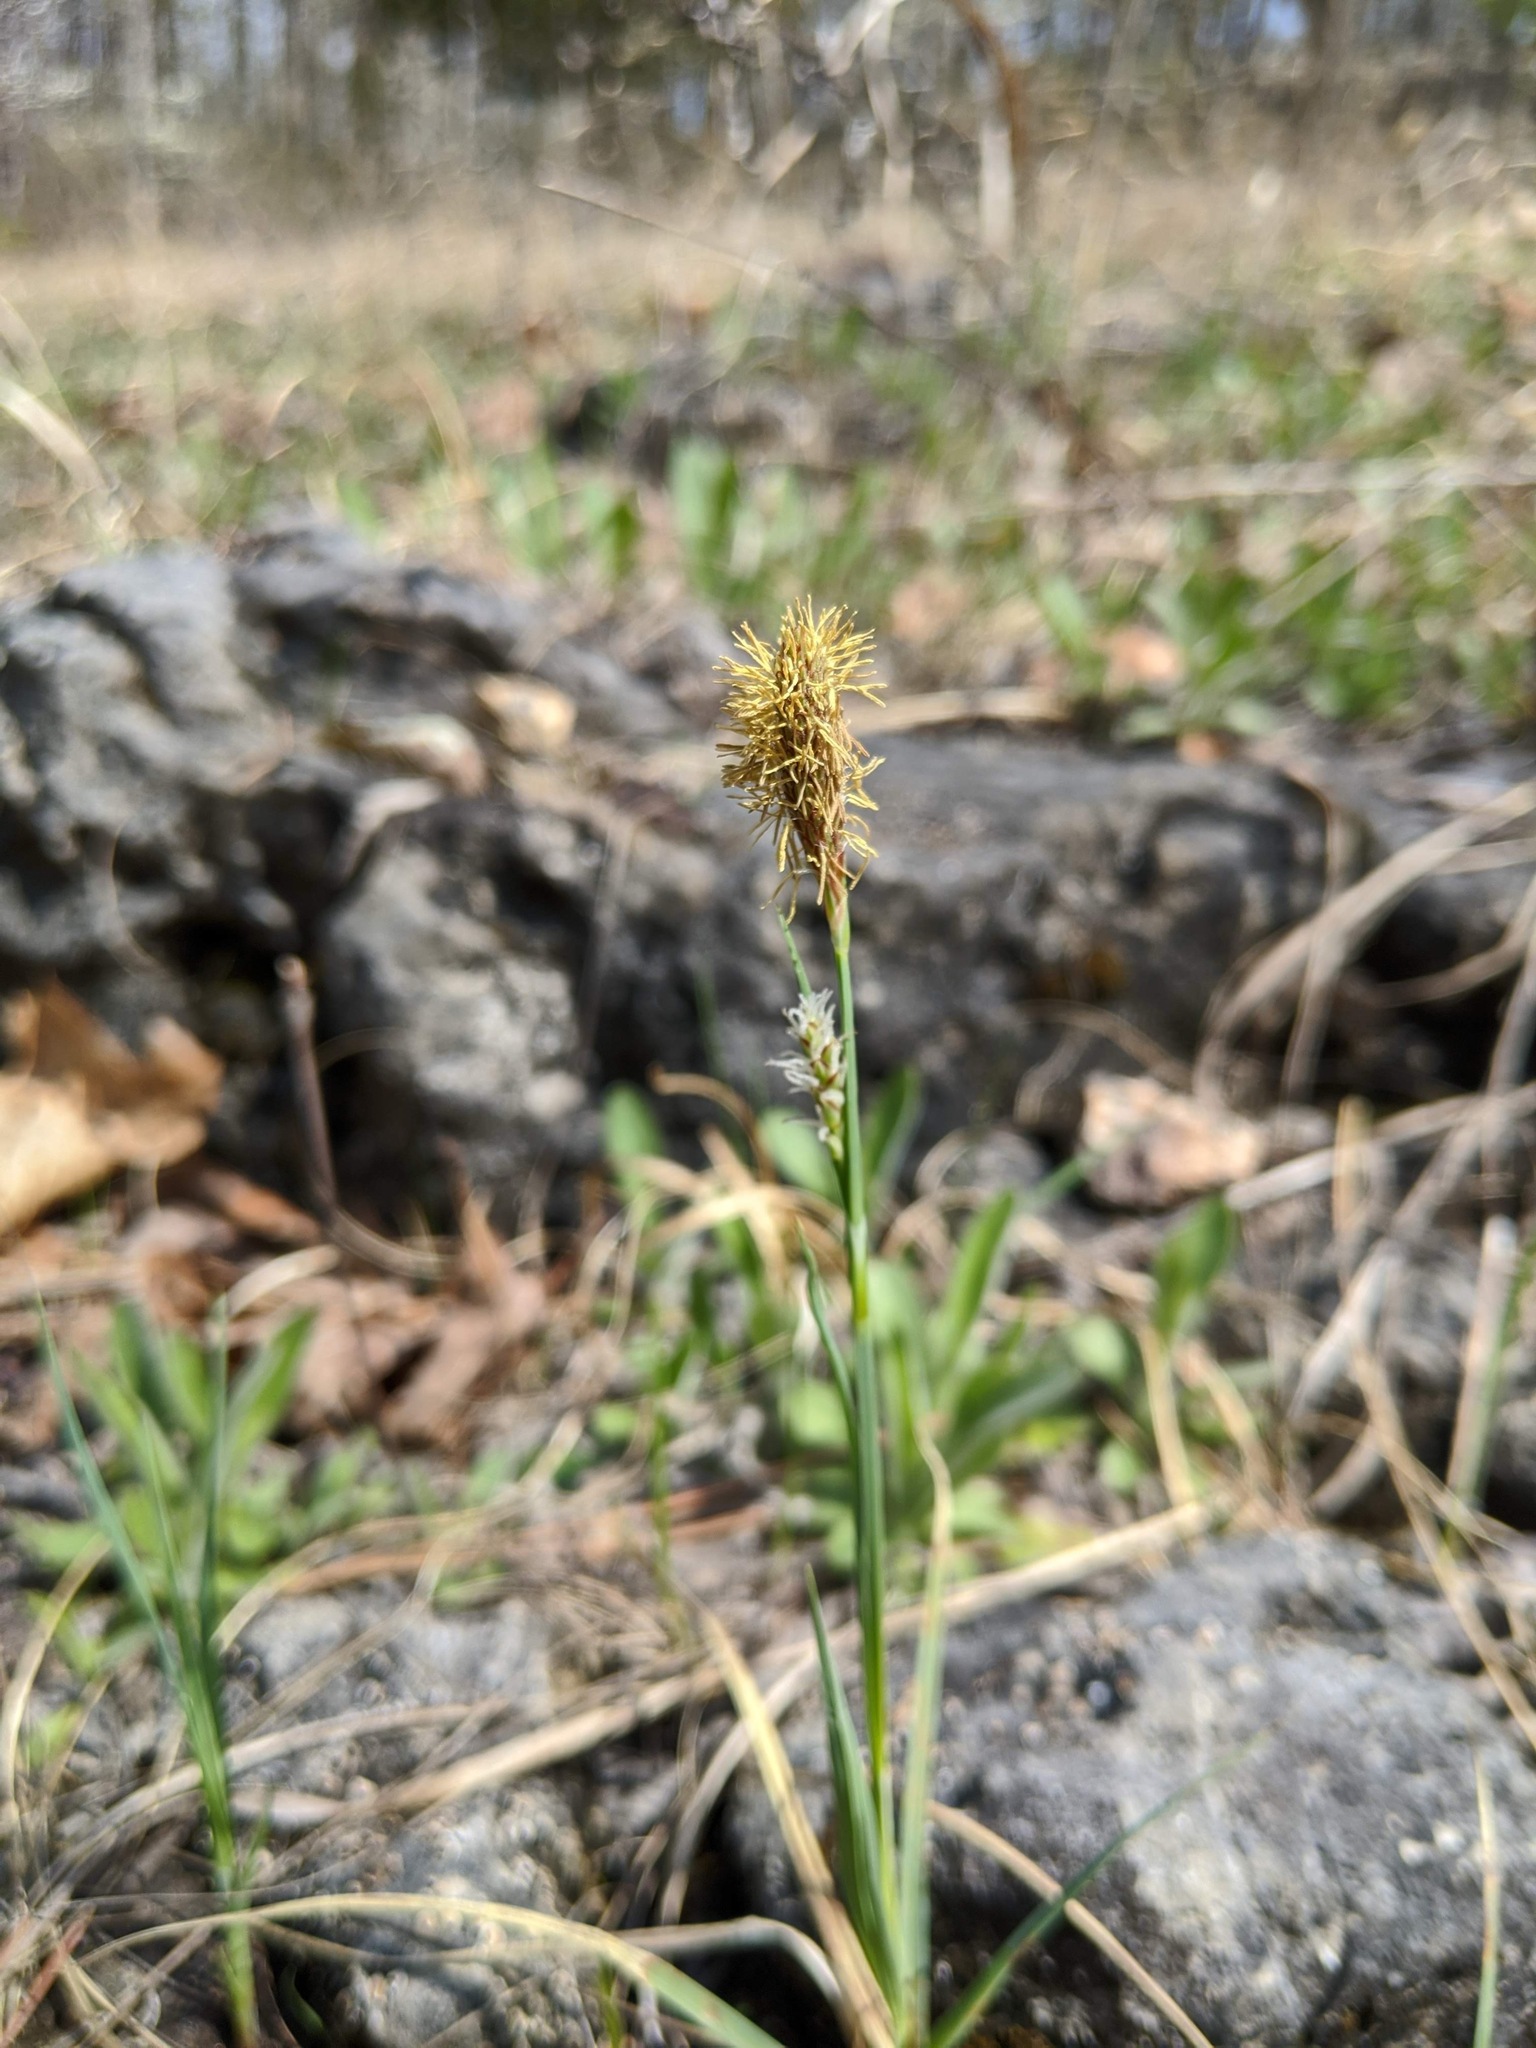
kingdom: Plantae
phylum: Tracheophyta
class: Liliopsida
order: Poales
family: Cyperaceae
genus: Carex
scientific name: Carex meadii
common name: Mead's sedge
